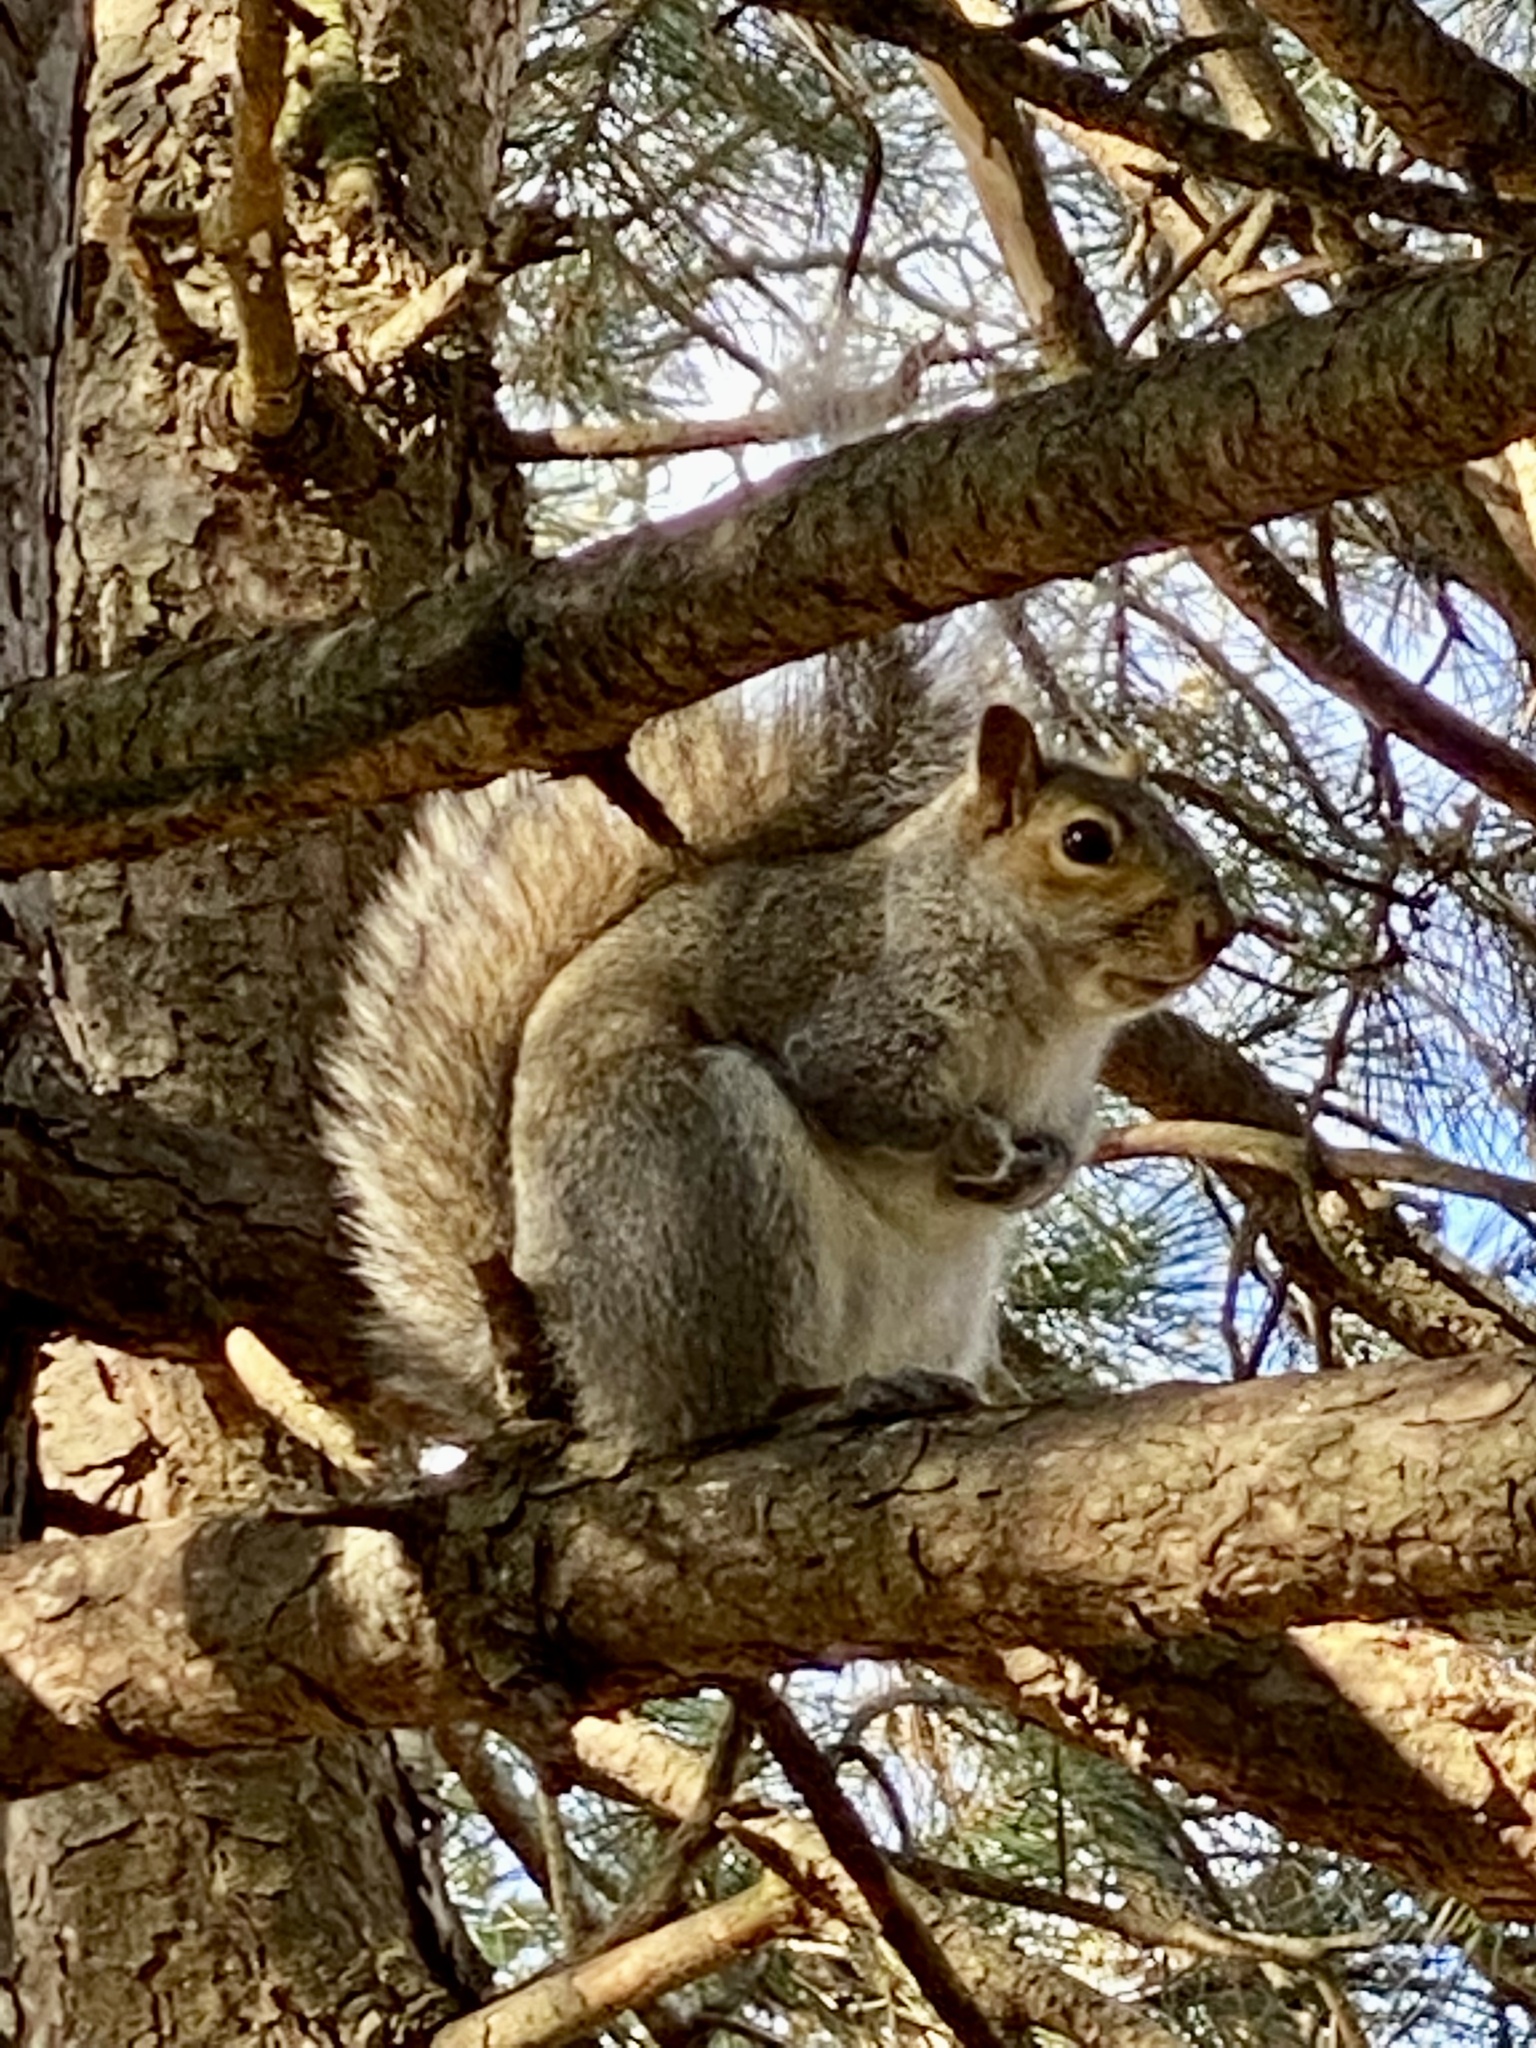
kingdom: Animalia
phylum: Chordata
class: Mammalia
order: Rodentia
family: Sciuridae
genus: Sciurus
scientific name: Sciurus carolinensis
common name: Eastern gray squirrel
